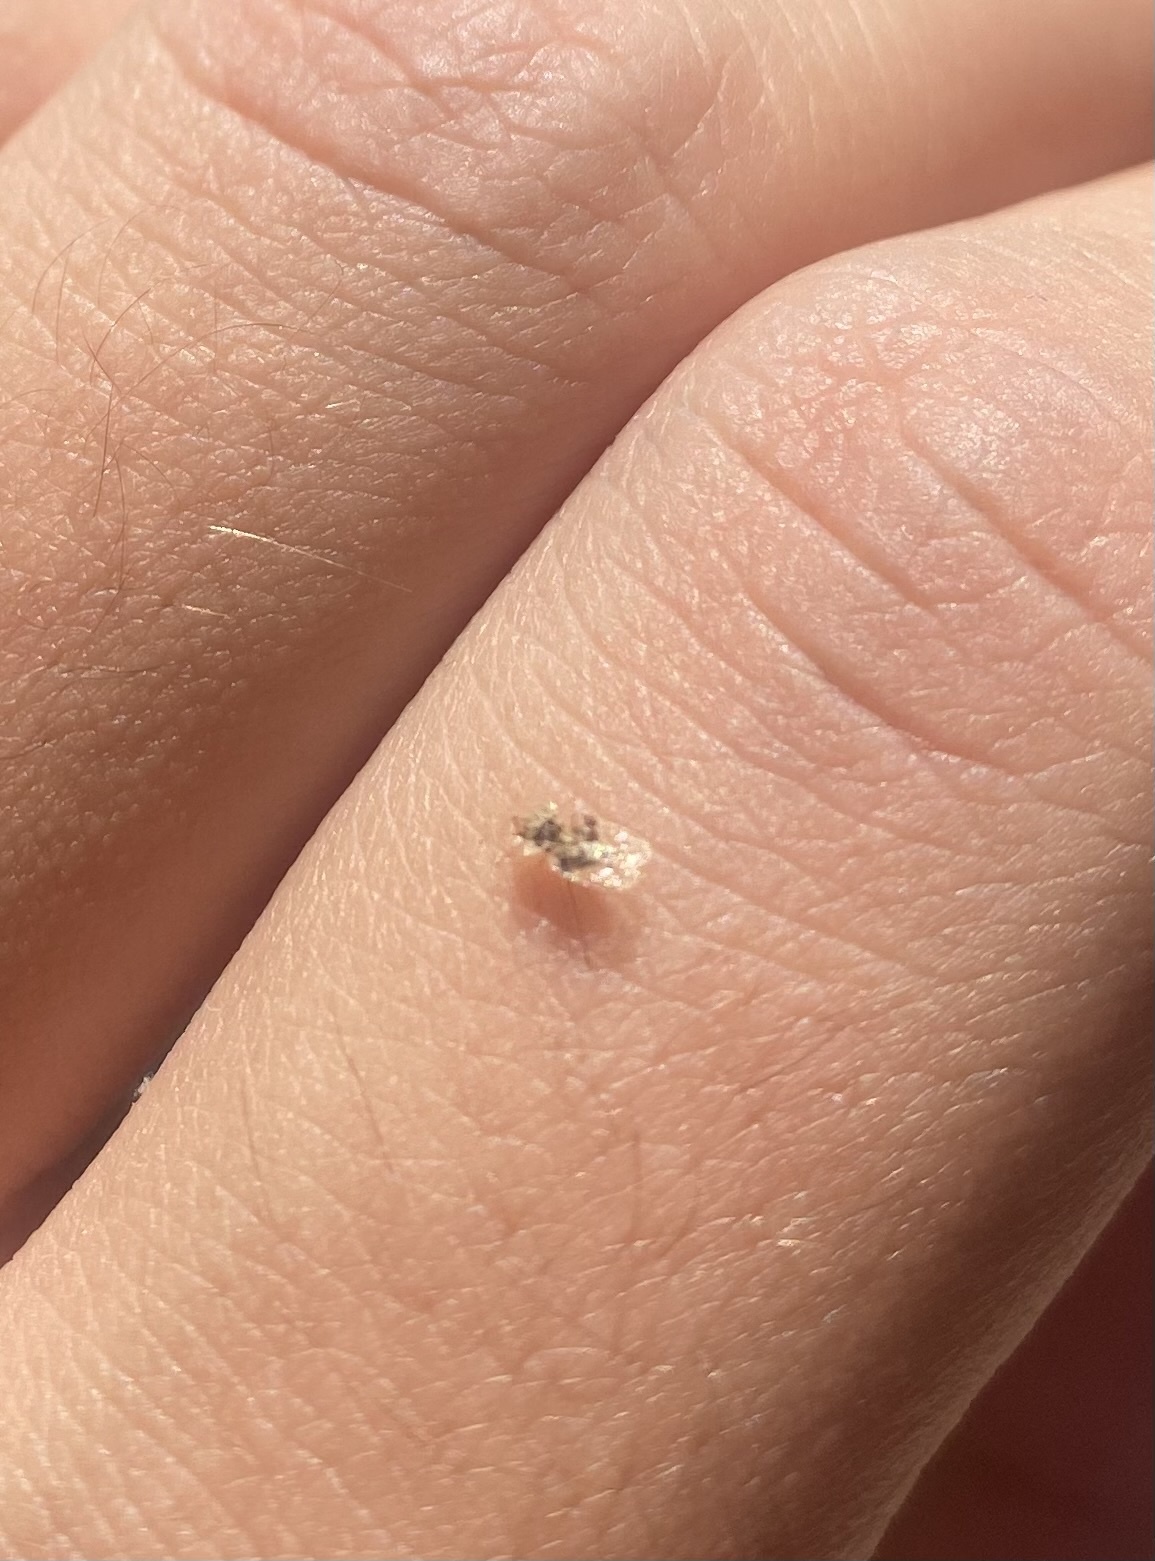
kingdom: Animalia
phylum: Arthropoda
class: Insecta
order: Hemiptera
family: Tingidae
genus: Corythucha
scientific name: Corythucha arcuata
